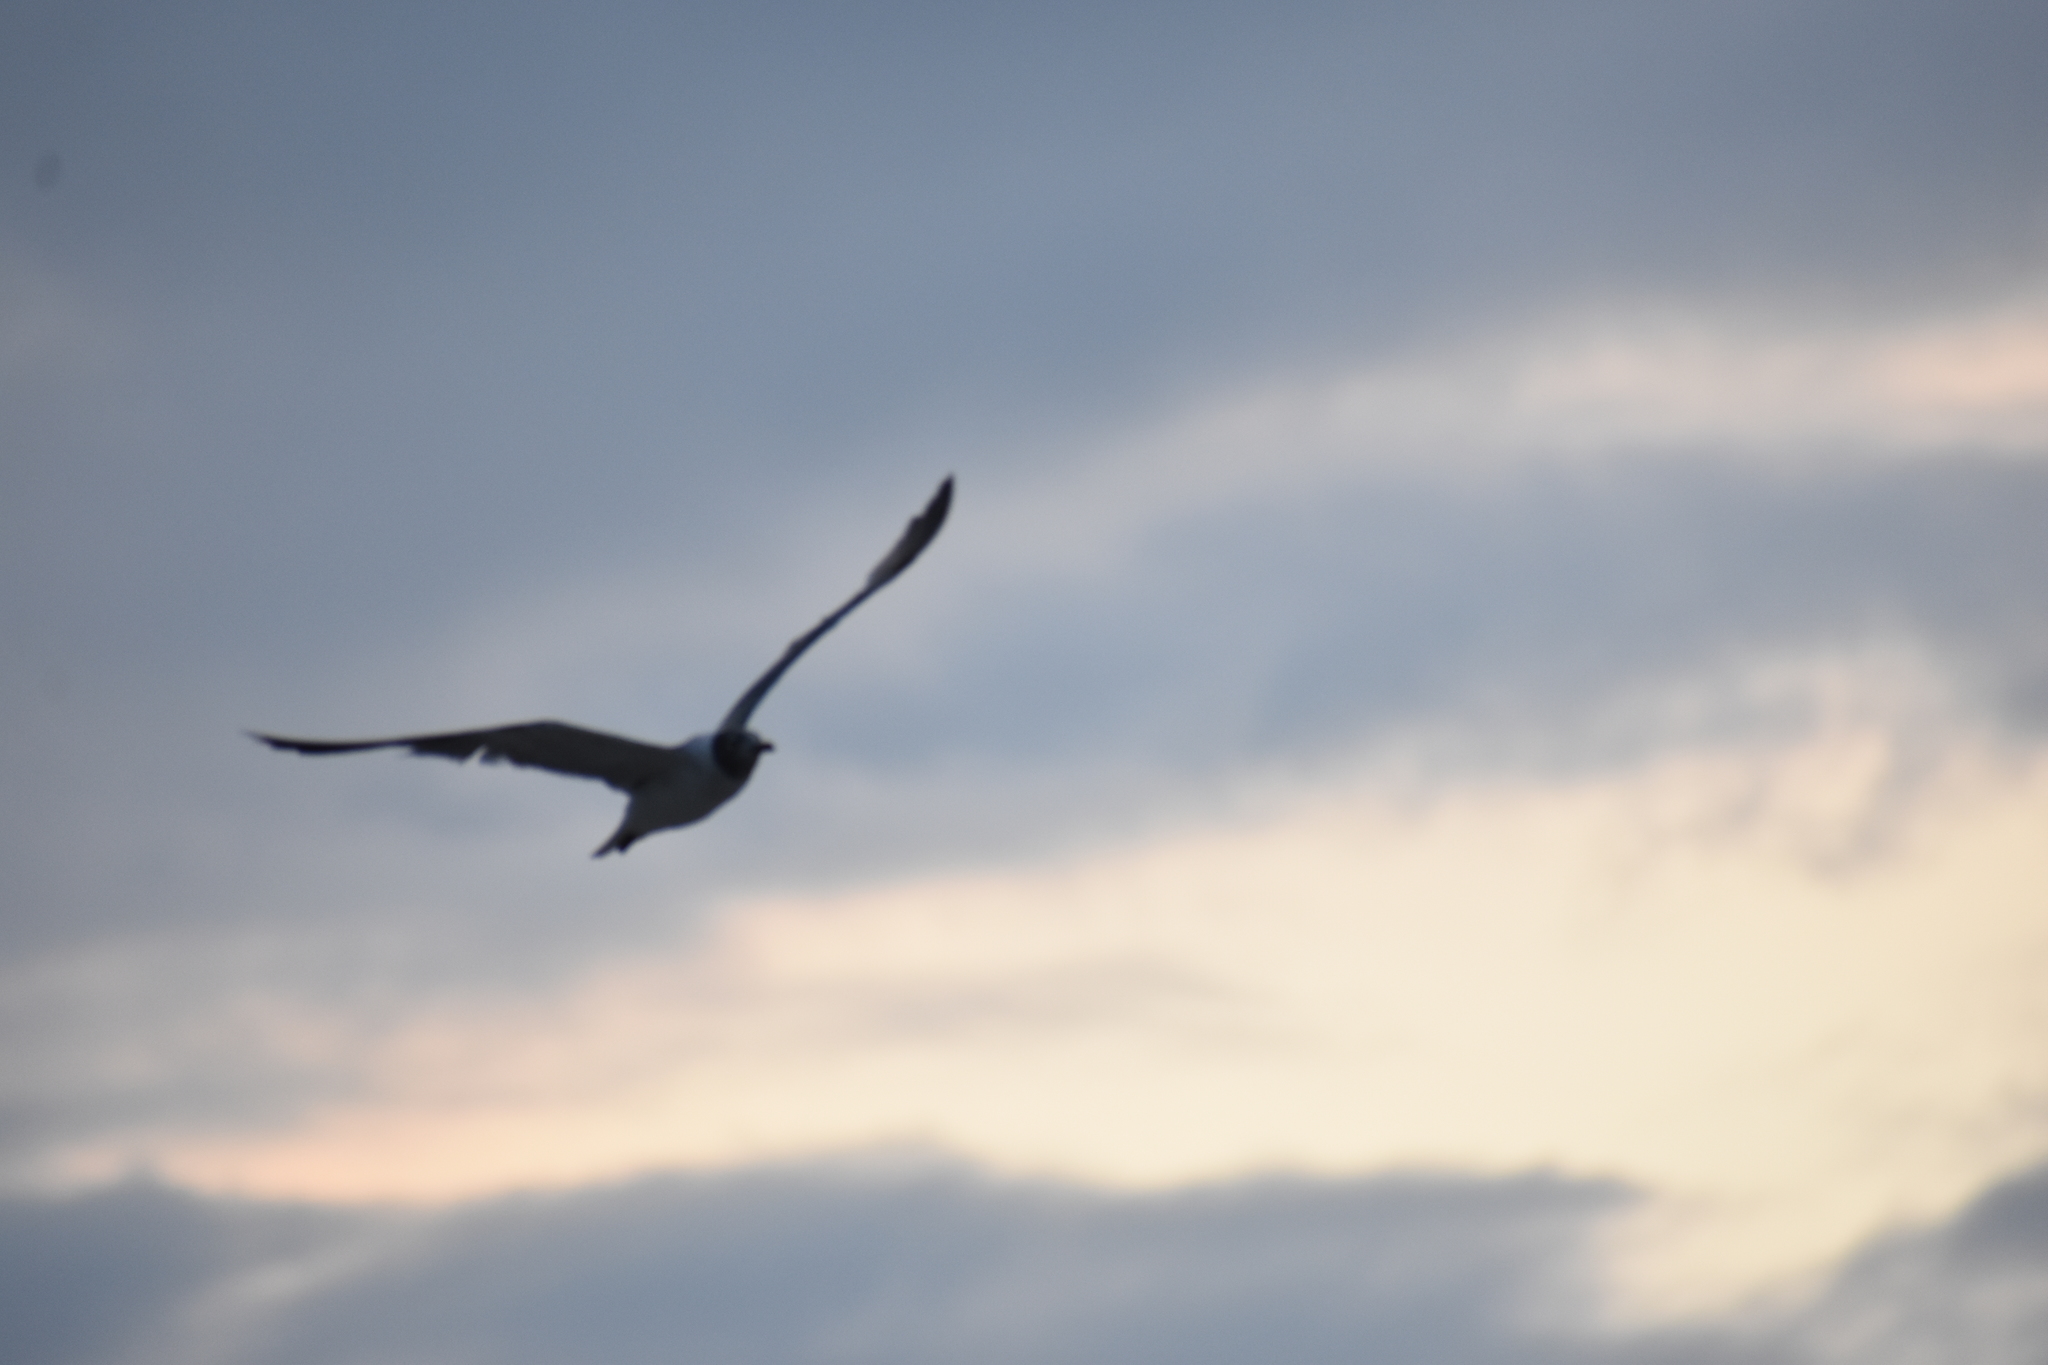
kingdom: Animalia
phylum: Chordata
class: Aves
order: Charadriiformes
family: Laridae
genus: Leucophaeus
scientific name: Leucophaeus atricilla
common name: Laughing gull
